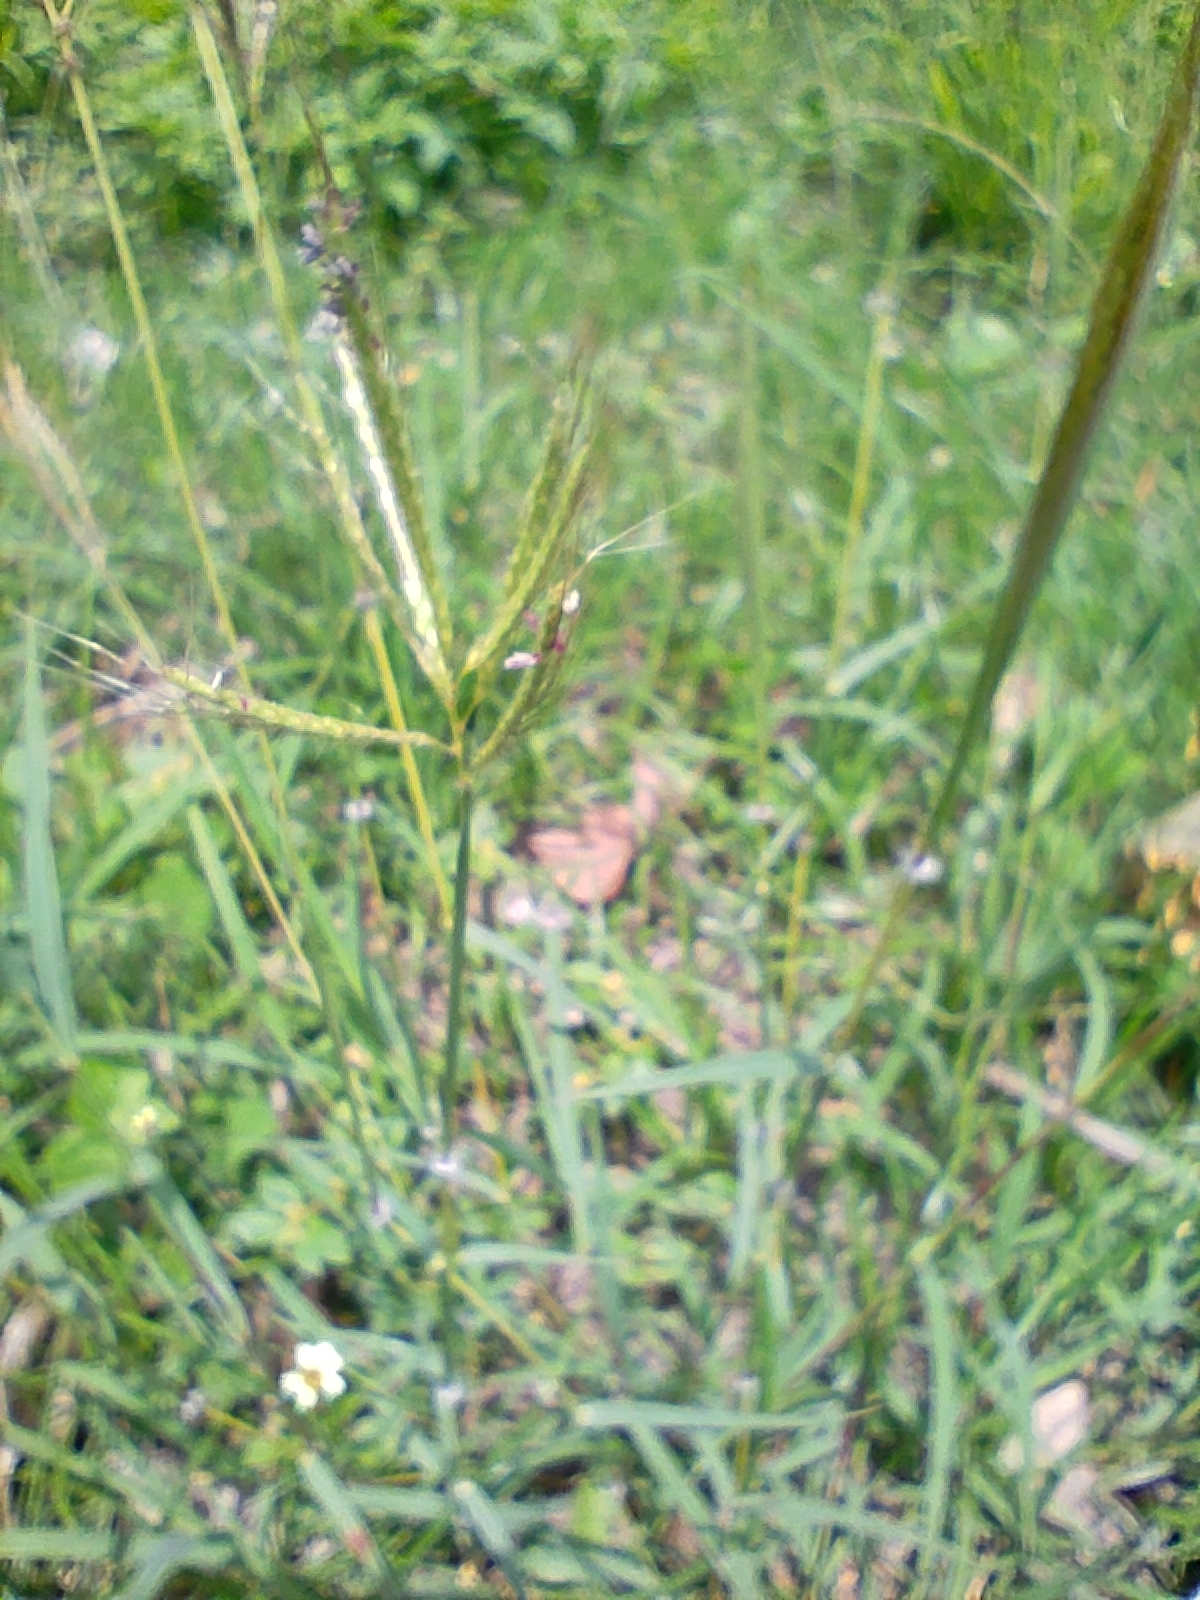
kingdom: Plantae
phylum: Tracheophyta
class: Liliopsida
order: Poales
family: Poaceae
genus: Dichanthium
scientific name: Dichanthium annulatum
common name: Kleberg's bluestem
